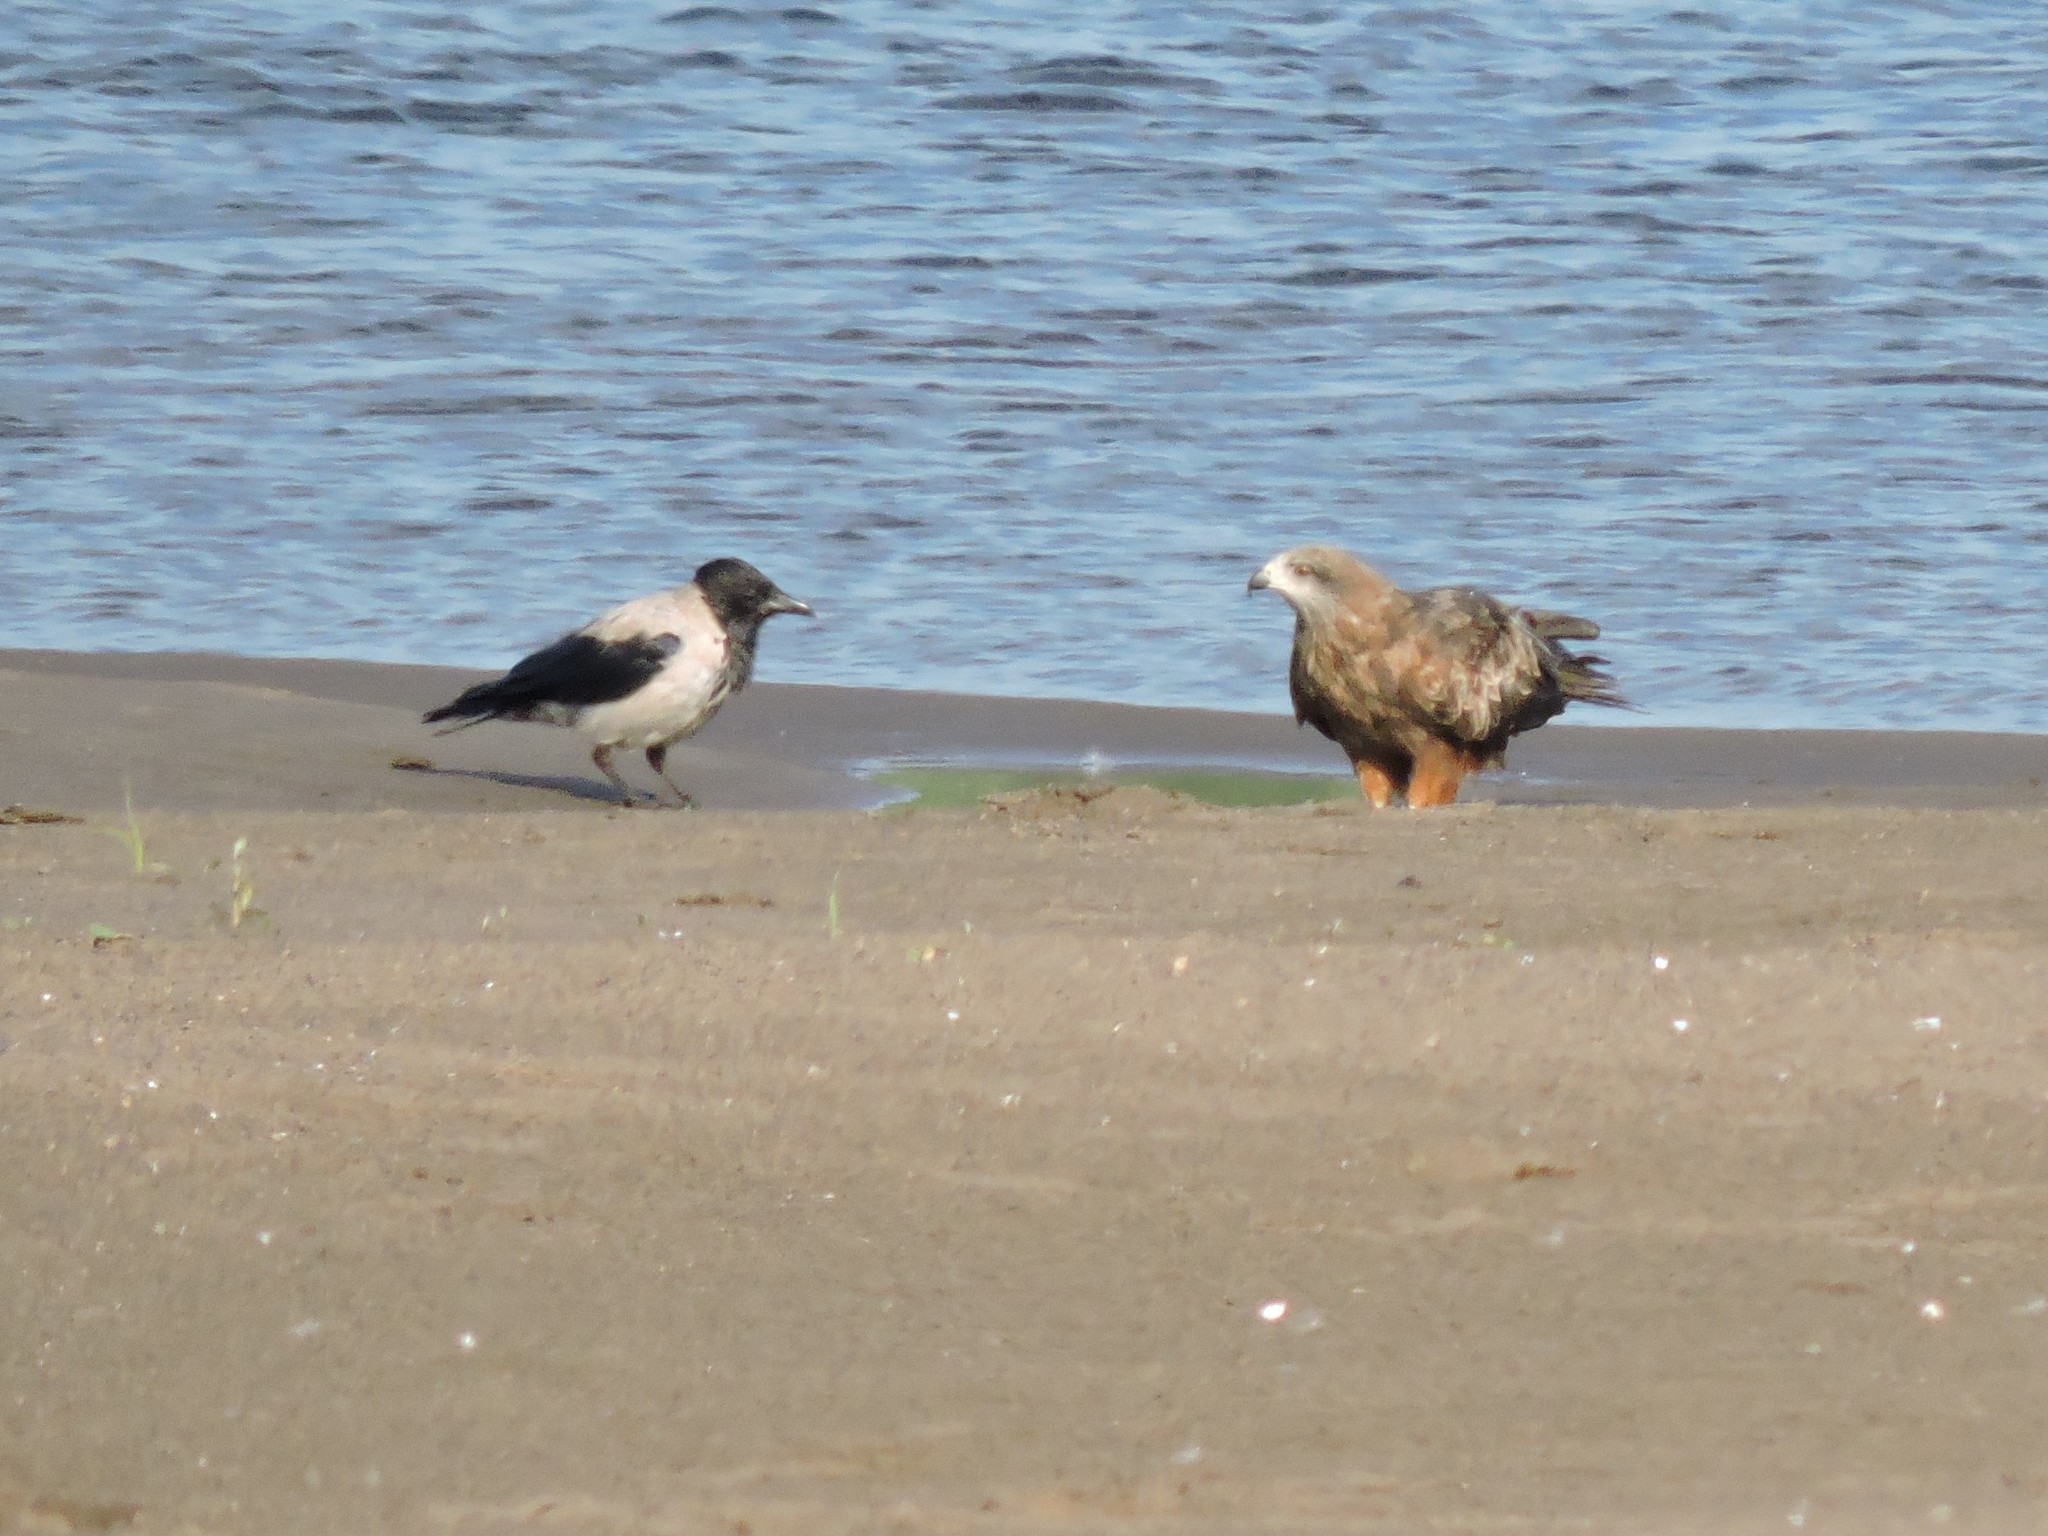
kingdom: Animalia
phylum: Chordata
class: Aves
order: Accipitriformes
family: Accipitridae
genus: Milvus
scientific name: Milvus migrans
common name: Black kite
